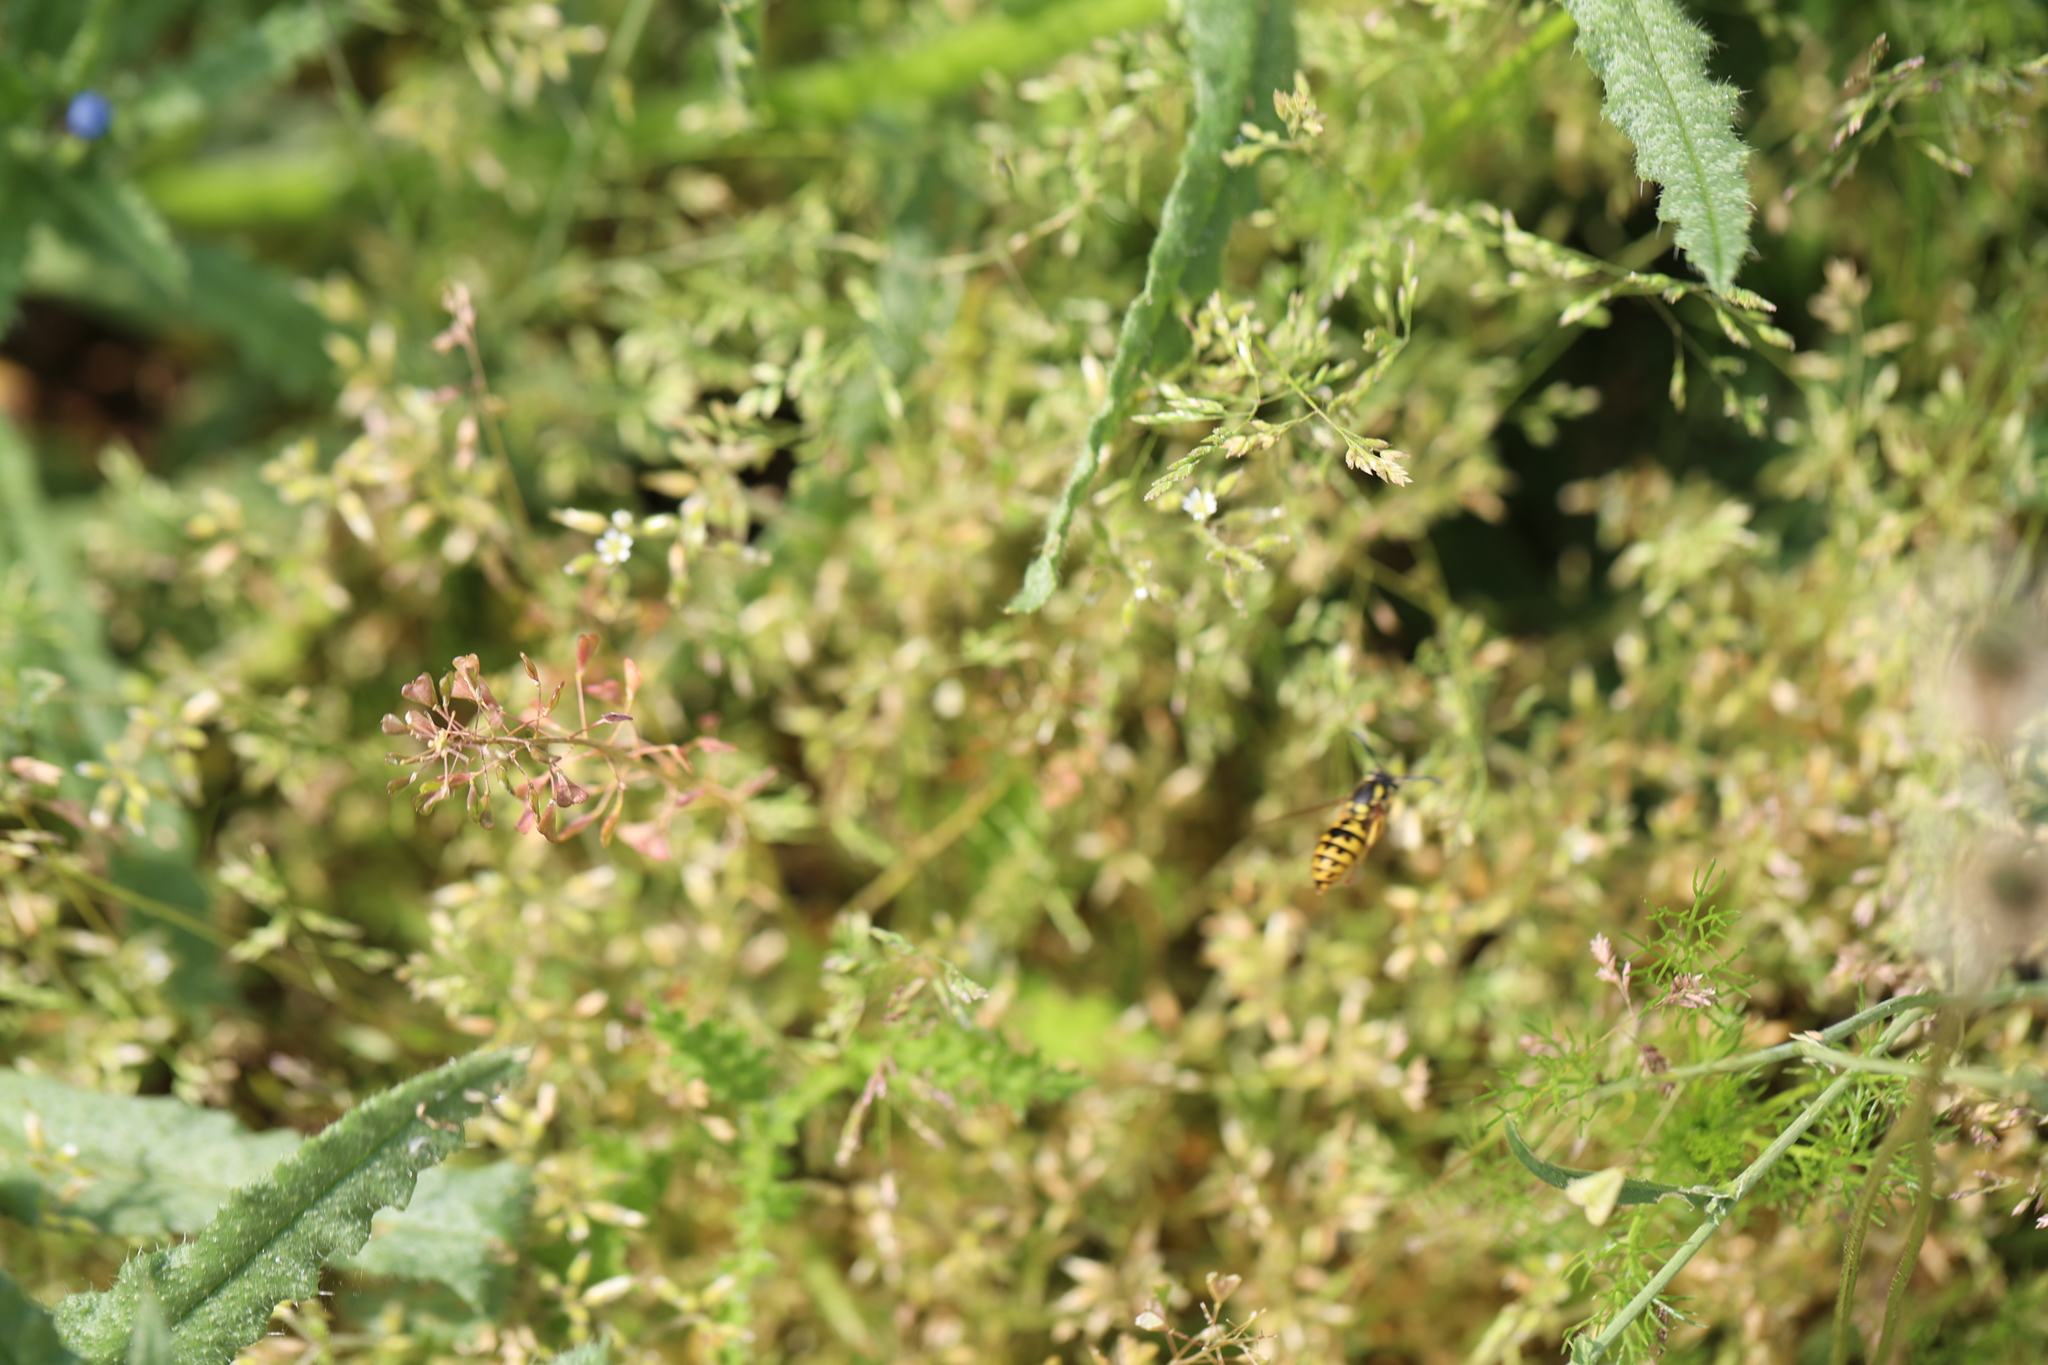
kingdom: Animalia
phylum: Arthropoda
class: Insecta
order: Hymenoptera
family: Vespidae
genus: Vespula
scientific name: Vespula germanica
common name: German wasp
